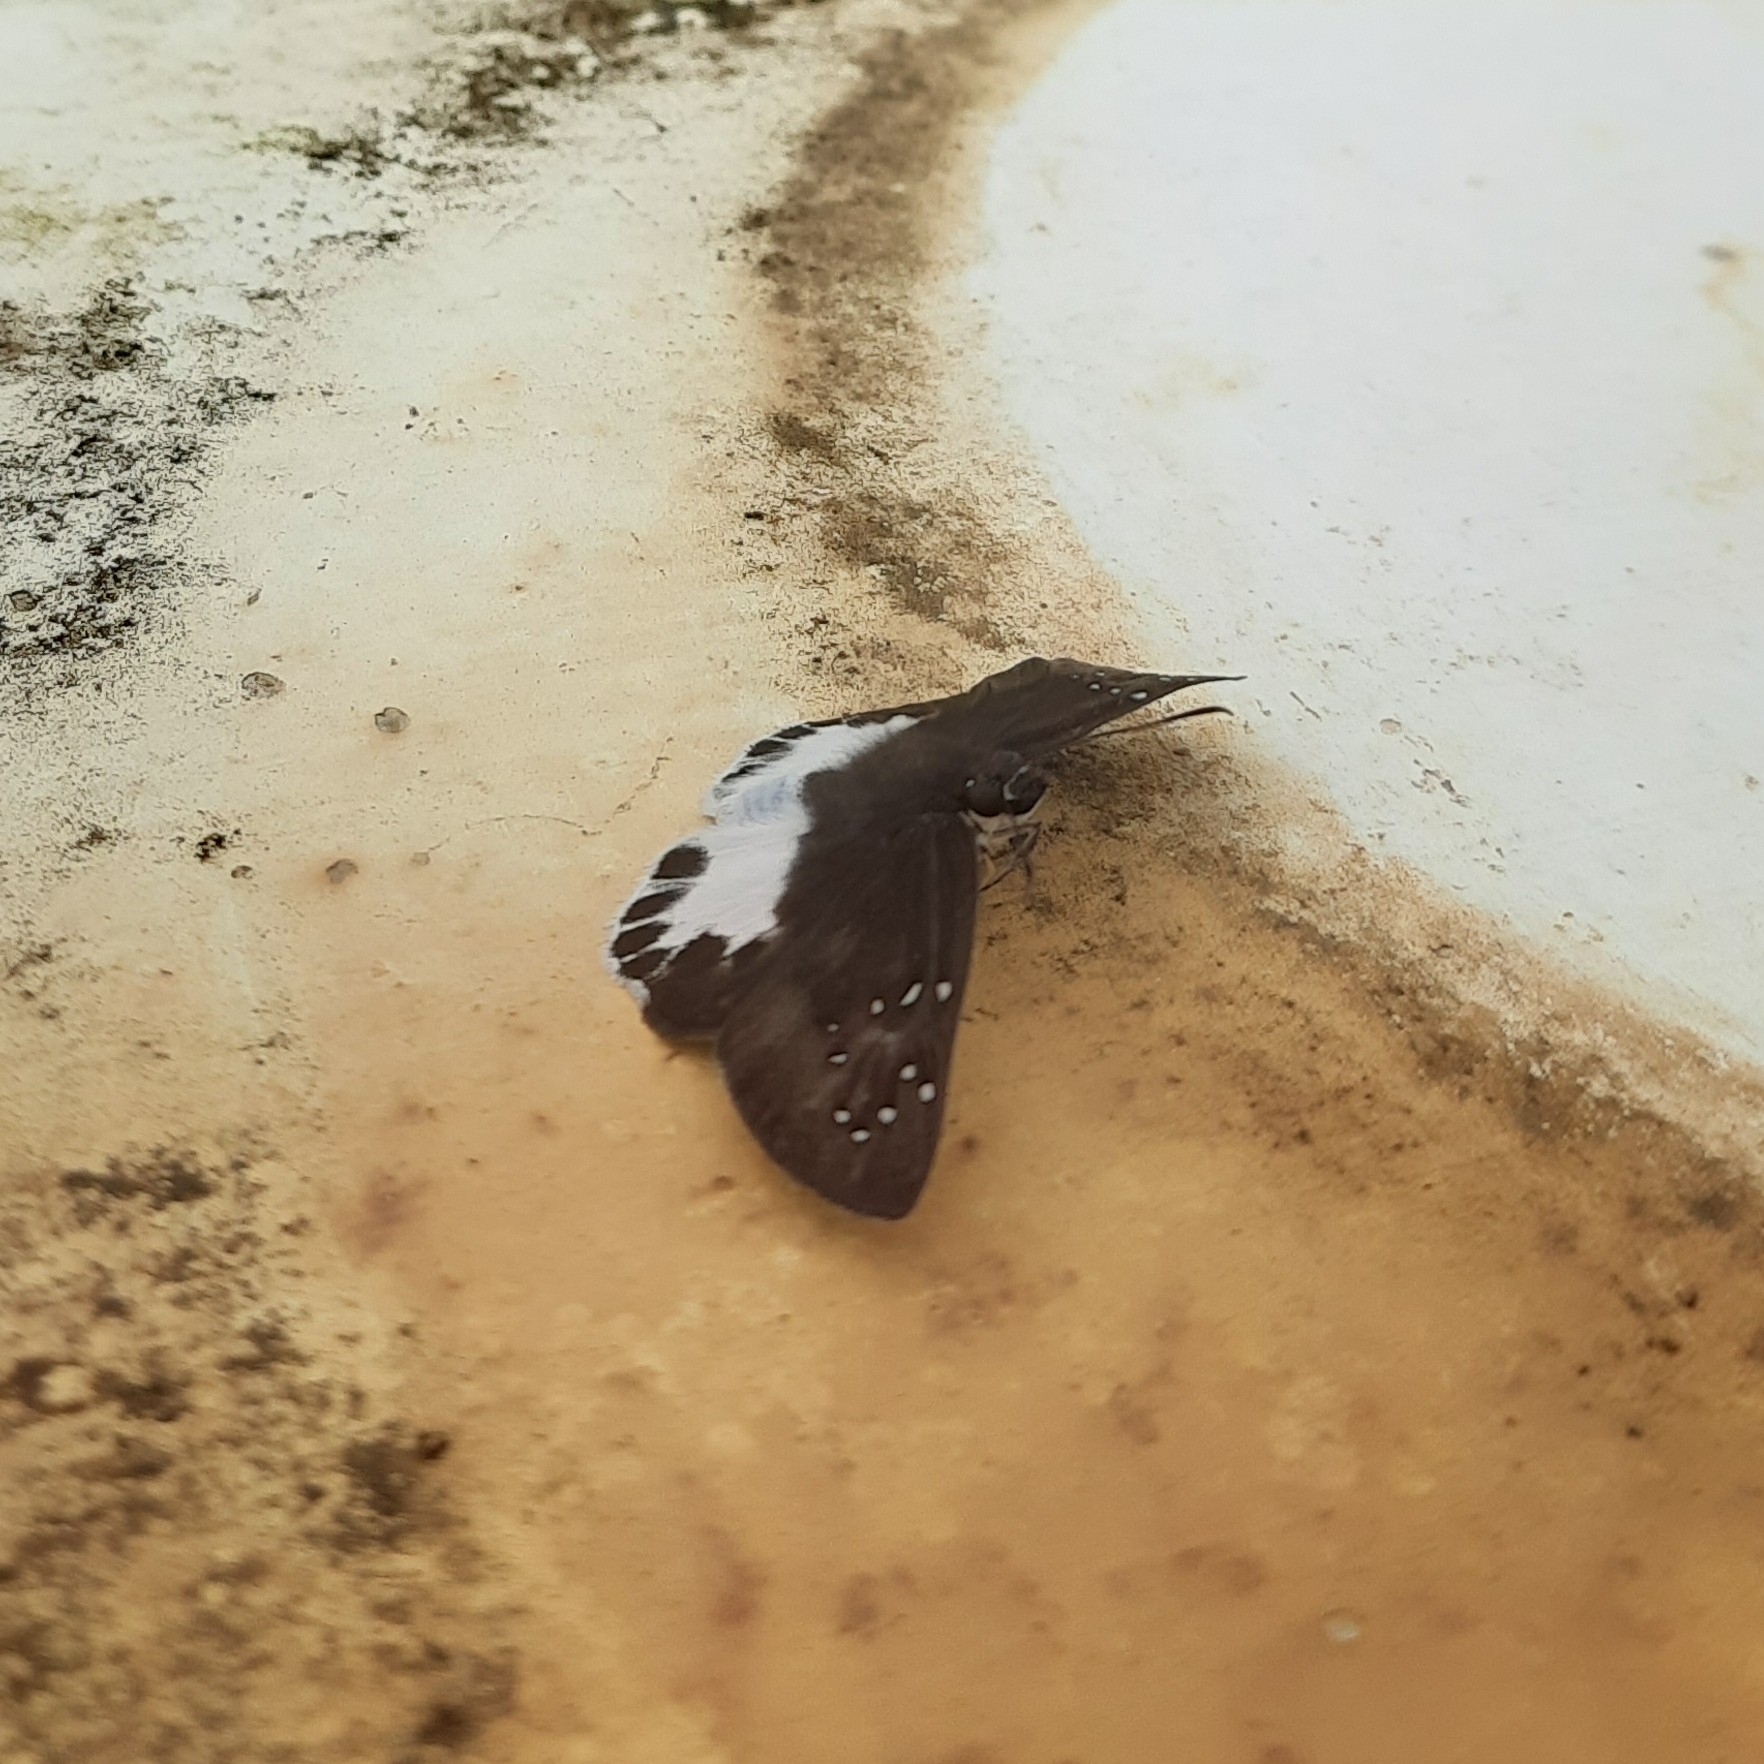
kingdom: Animalia
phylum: Arthropoda
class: Insecta
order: Lepidoptera
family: Hesperiidae
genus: Tagiades
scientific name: Tagiades litigiosa
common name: Water snow flat
